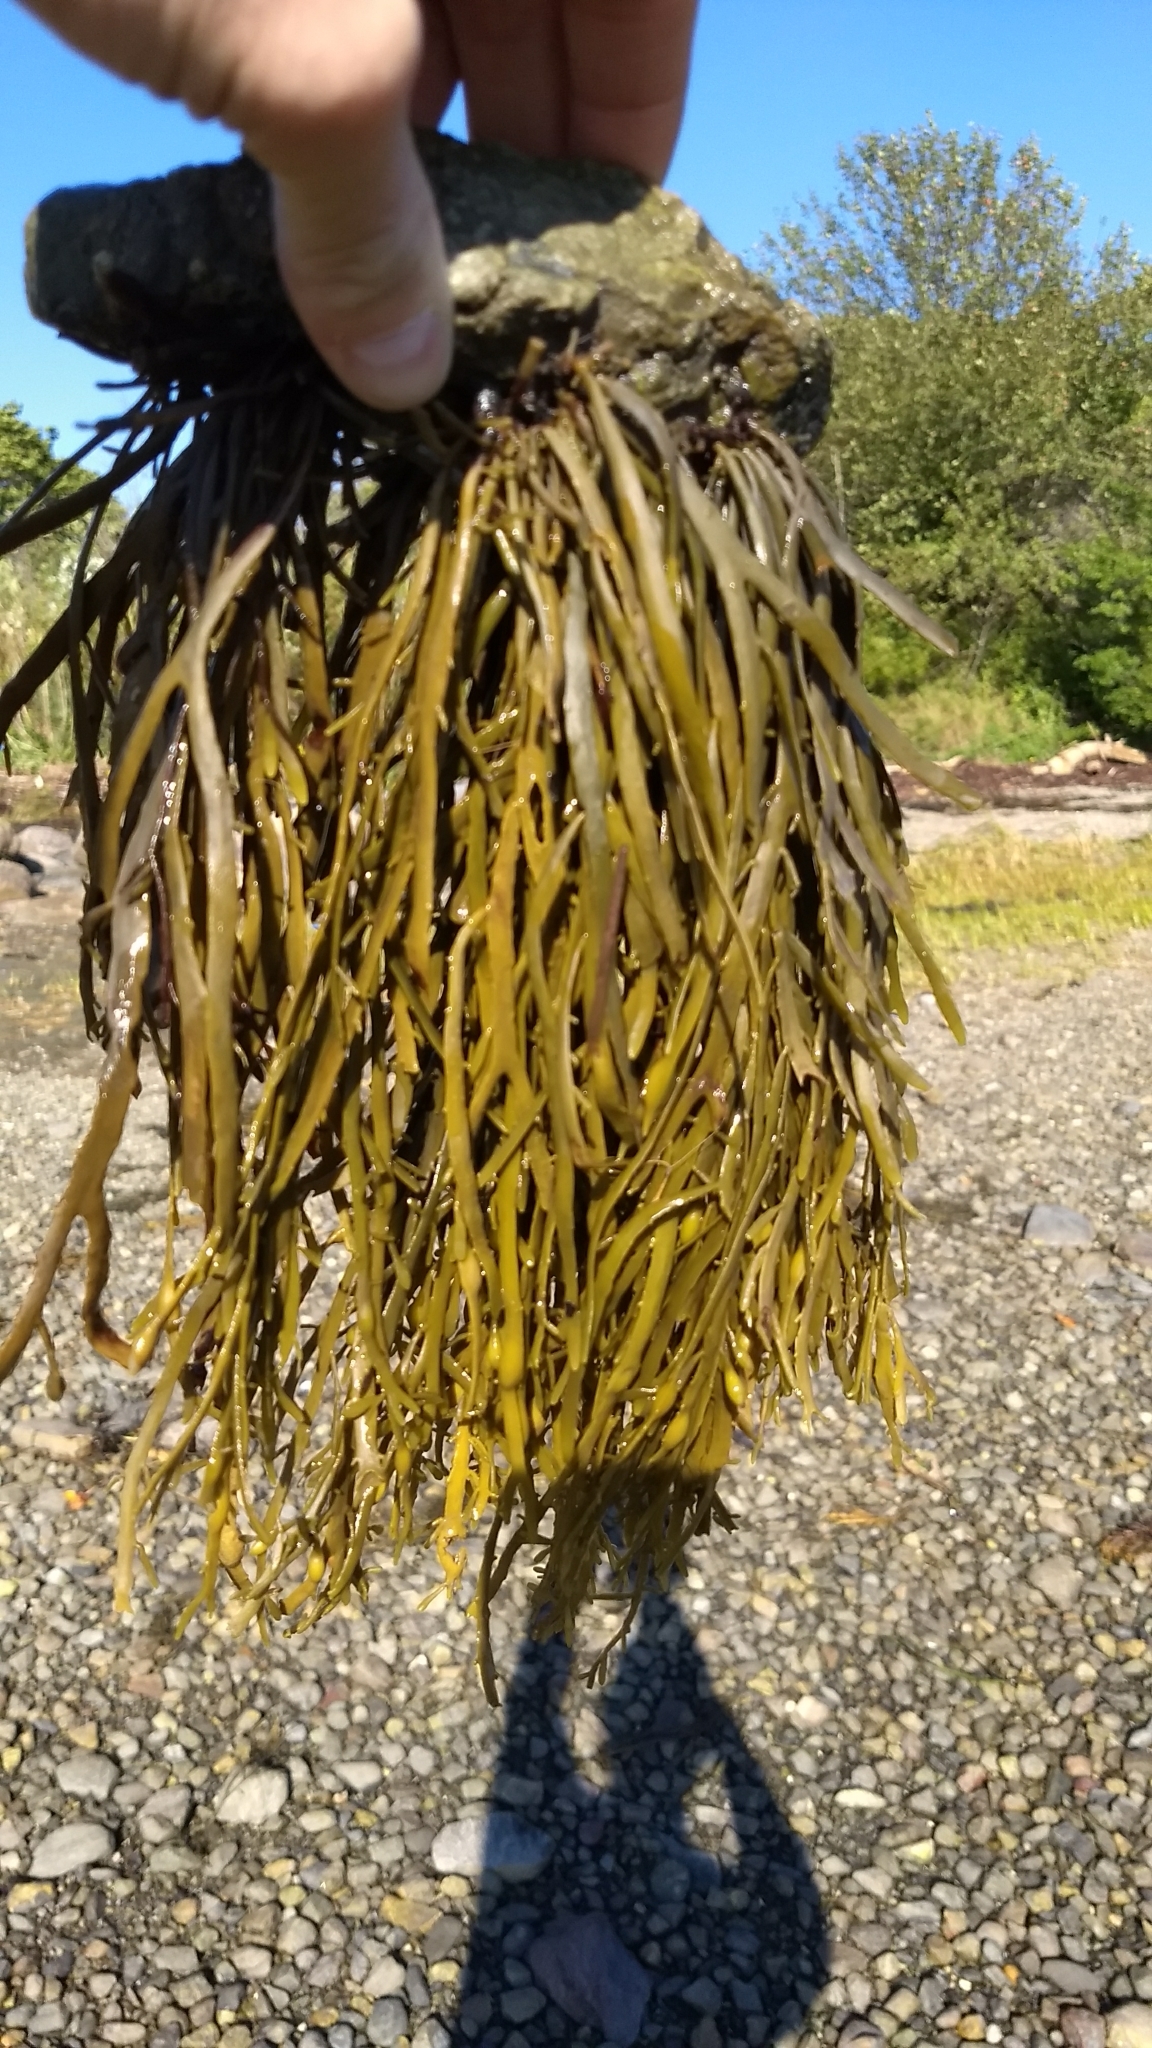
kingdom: Chromista
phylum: Ochrophyta
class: Phaeophyceae
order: Fucales
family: Fucaceae
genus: Ascophyllum
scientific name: Ascophyllum nodosum
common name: Knotted wrack
